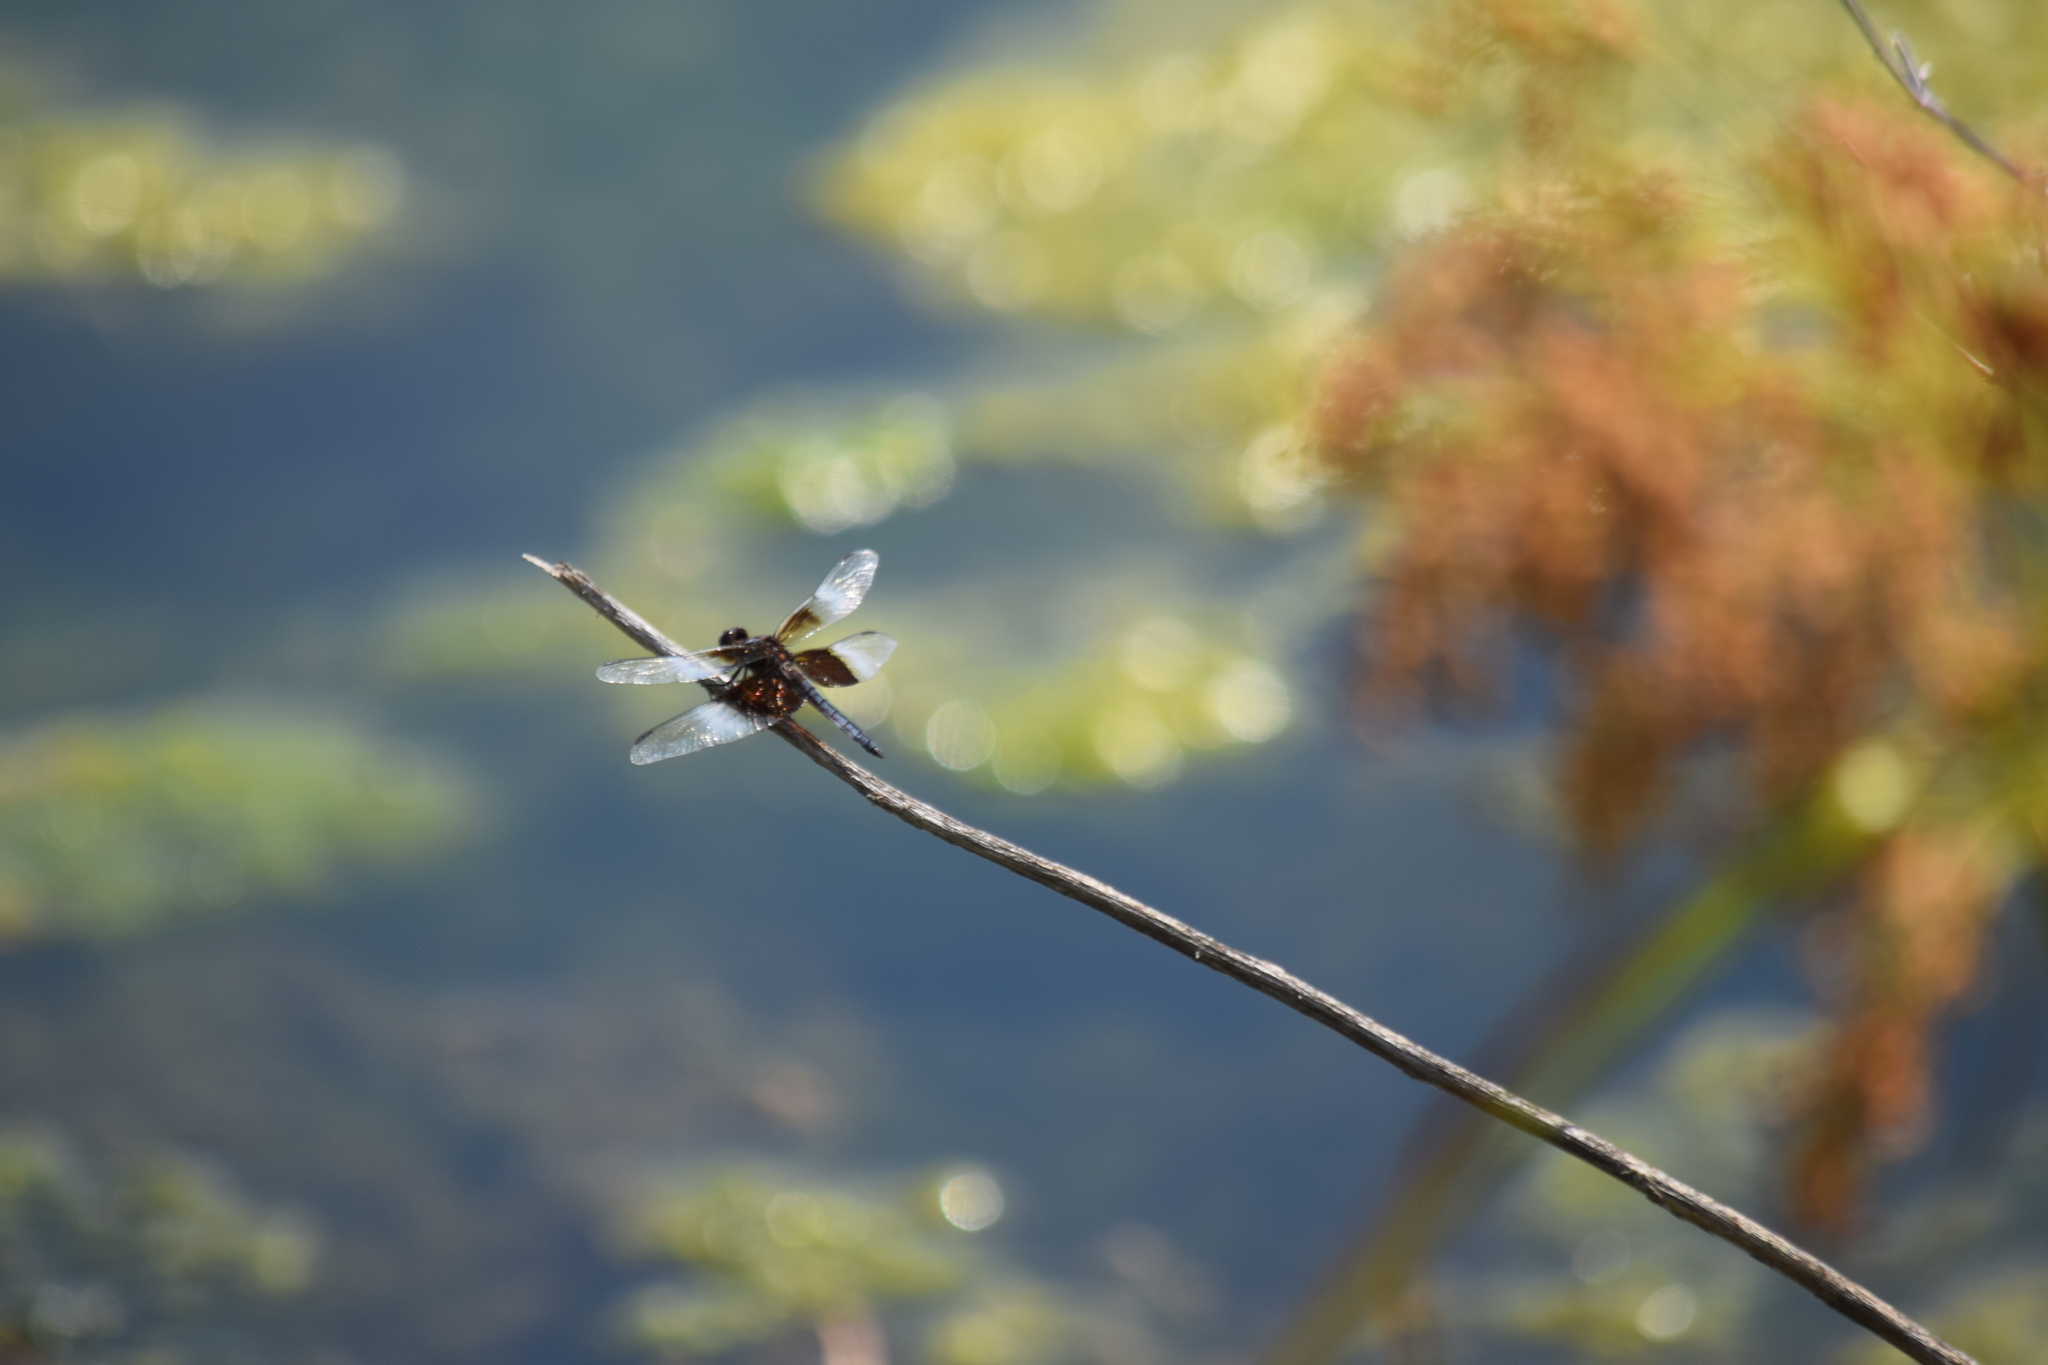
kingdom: Animalia
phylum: Arthropoda
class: Insecta
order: Odonata
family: Libellulidae
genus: Libellula
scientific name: Libellula luctuosa
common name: Widow skimmer
